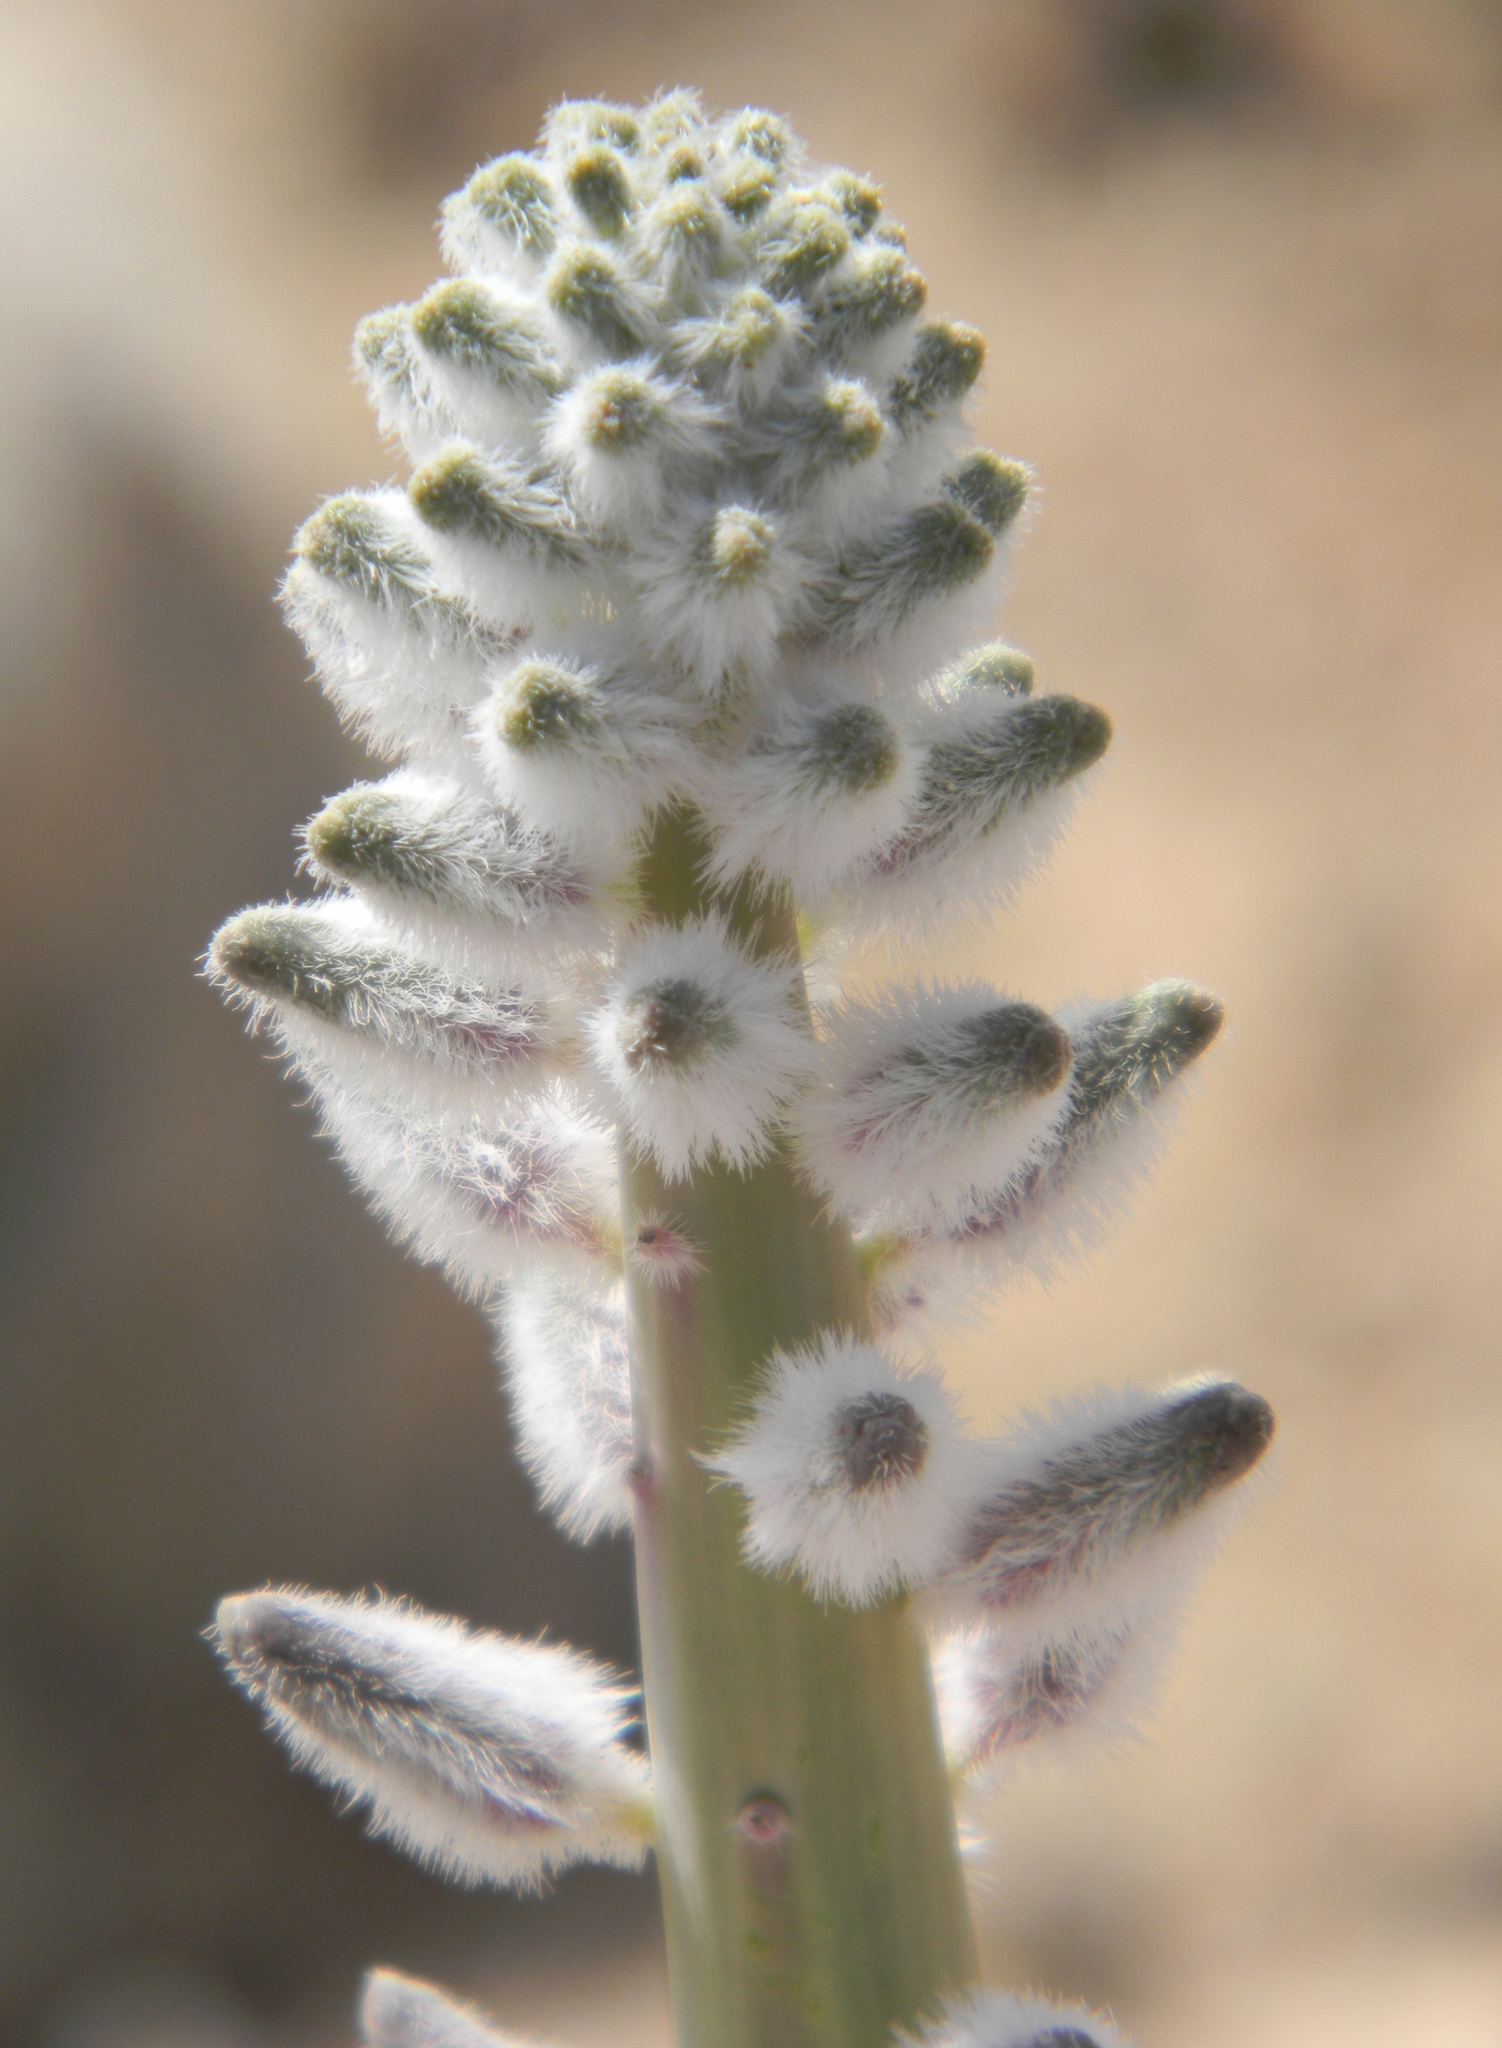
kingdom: Plantae
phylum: Tracheophyta
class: Magnoliopsida
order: Brassicales
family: Brassicaceae
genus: Streptanthus
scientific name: Streptanthus crassicaulis
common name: Thick-stem wild cabbage
